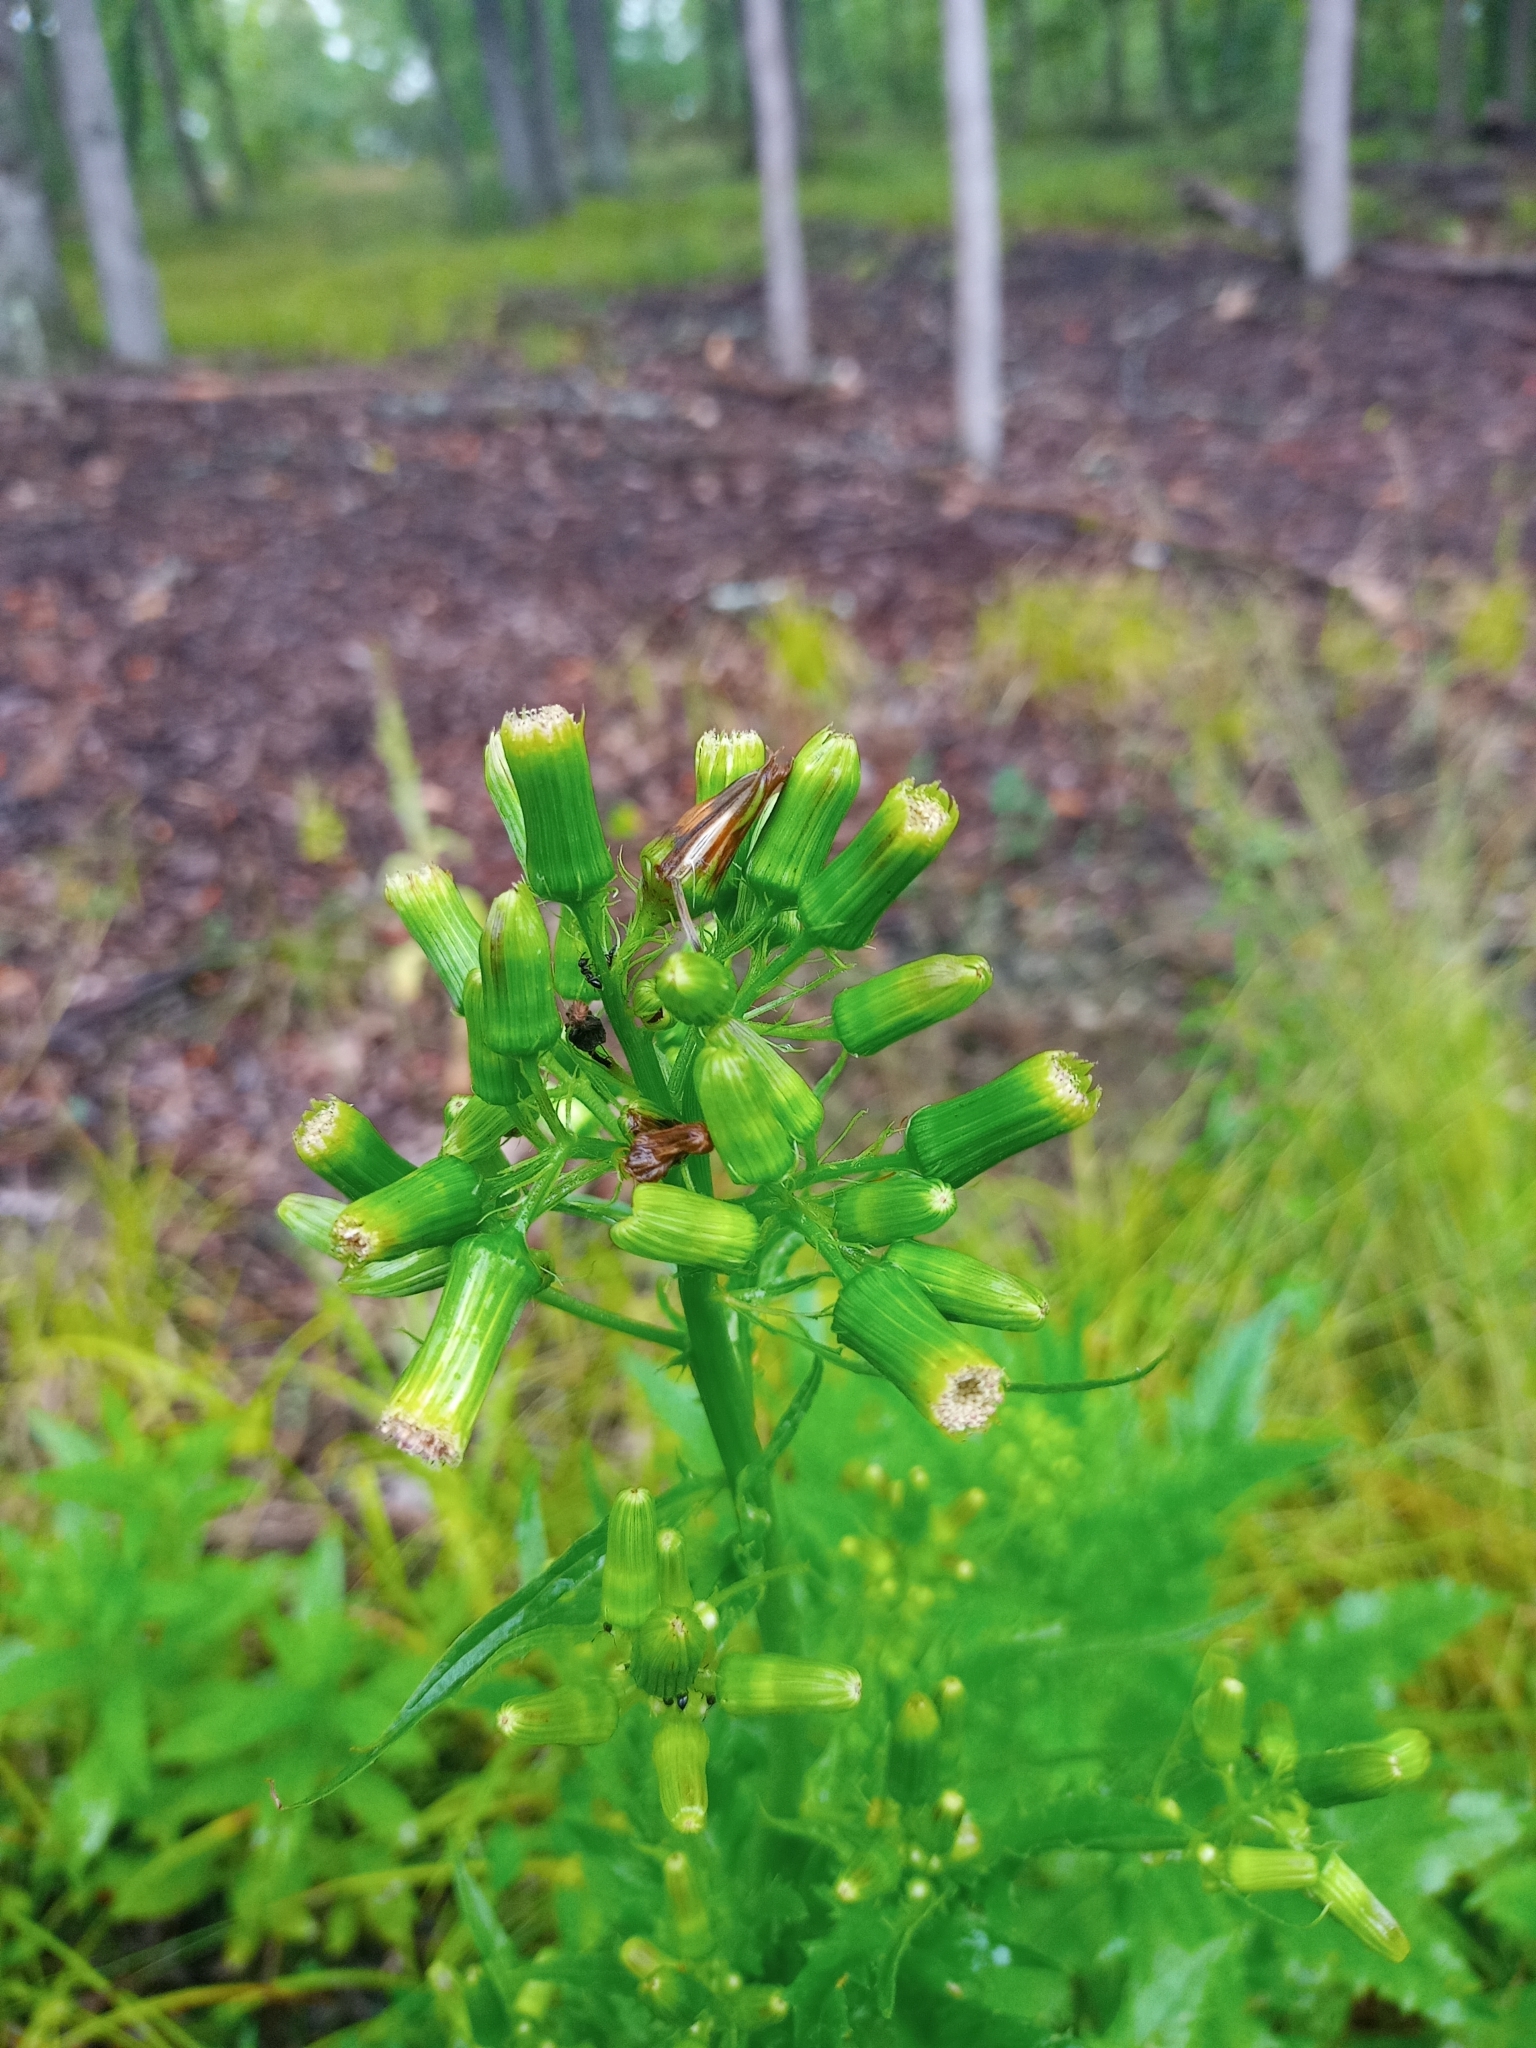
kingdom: Plantae
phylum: Tracheophyta
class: Magnoliopsida
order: Asterales
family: Asteraceae
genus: Erechtites
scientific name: Erechtites hieraciifolius
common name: American burnweed
